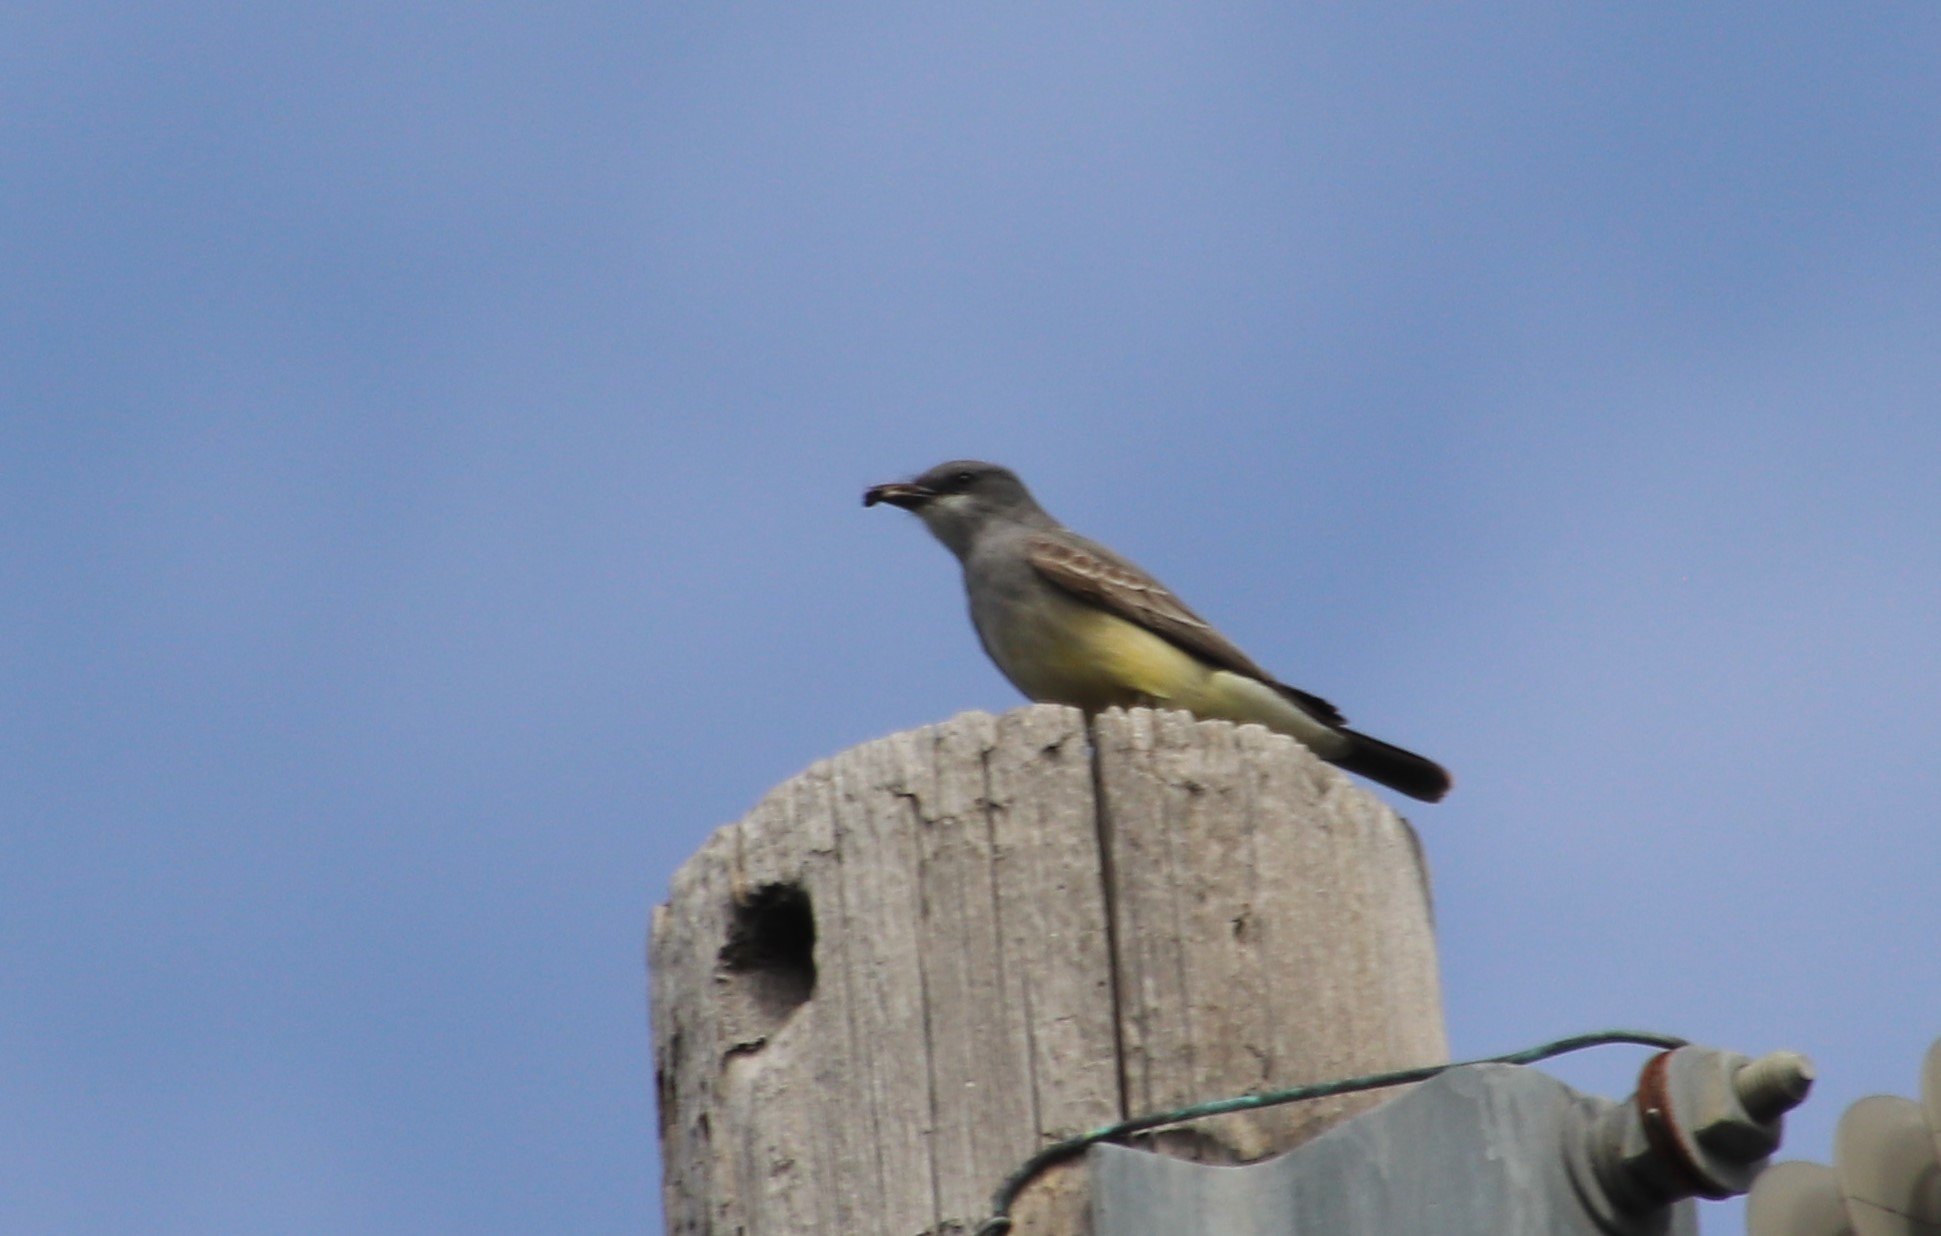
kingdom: Animalia
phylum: Chordata
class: Aves
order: Passeriformes
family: Tyrannidae
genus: Tyrannus
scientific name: Tyrannus vociferans
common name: Cassin's kingbird
